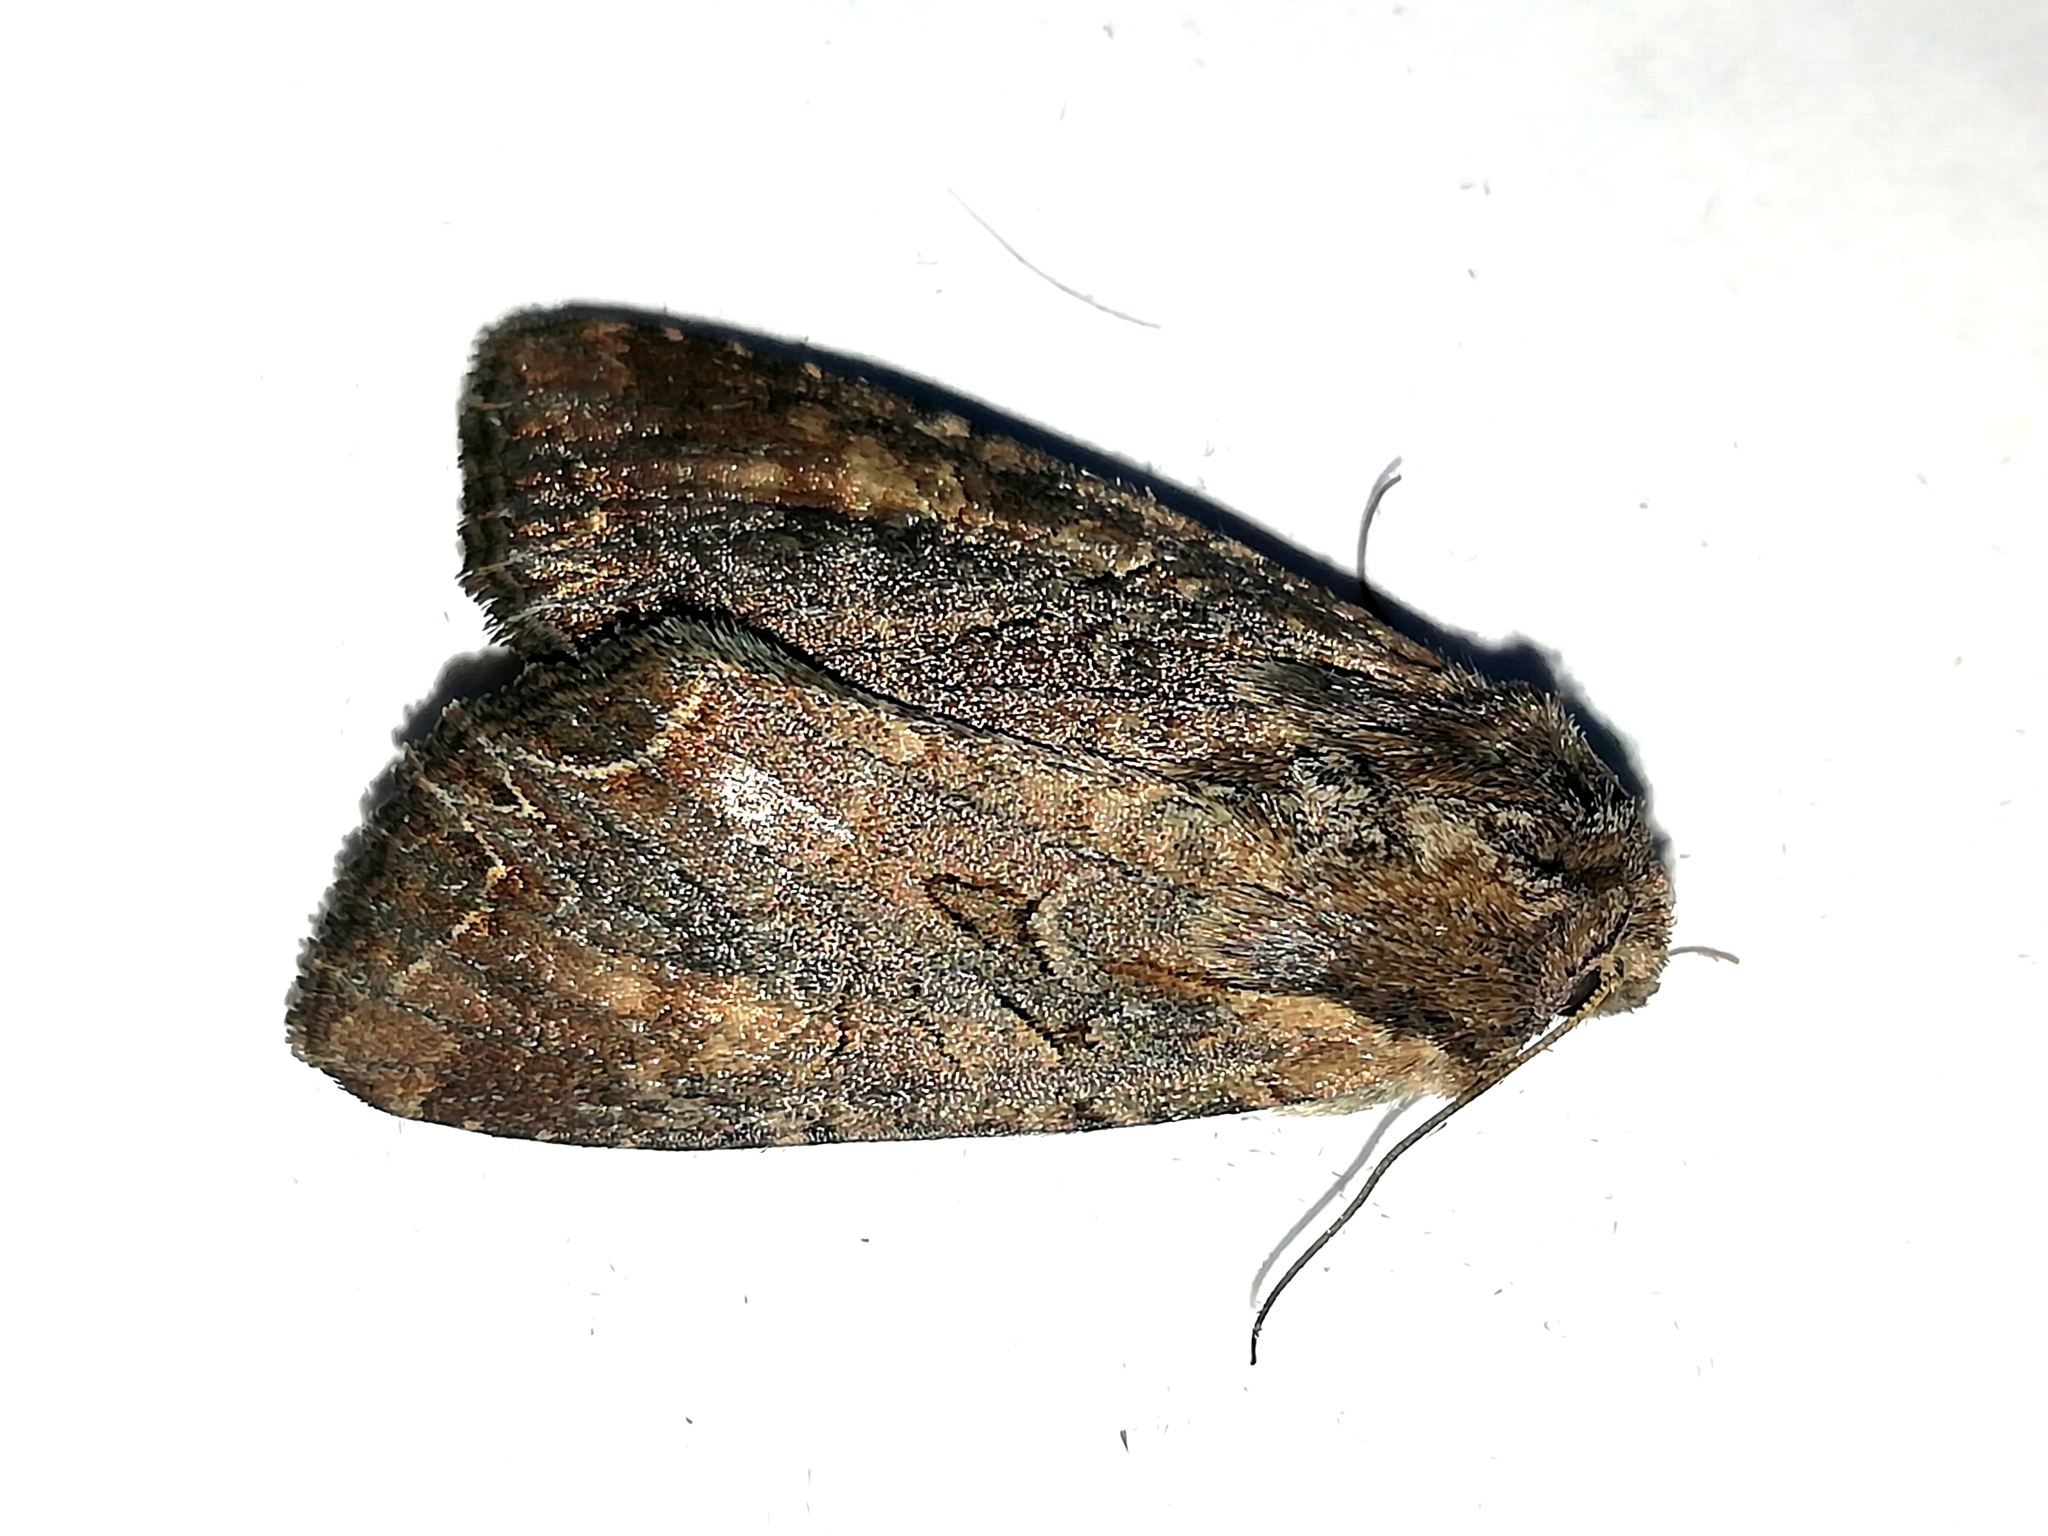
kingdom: Animalia
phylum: Arthropoda
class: Insecta
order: Lepidoptera
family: Noctuidae
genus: Lacanobia
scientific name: Lacanobia suasa
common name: Dog's tooth
